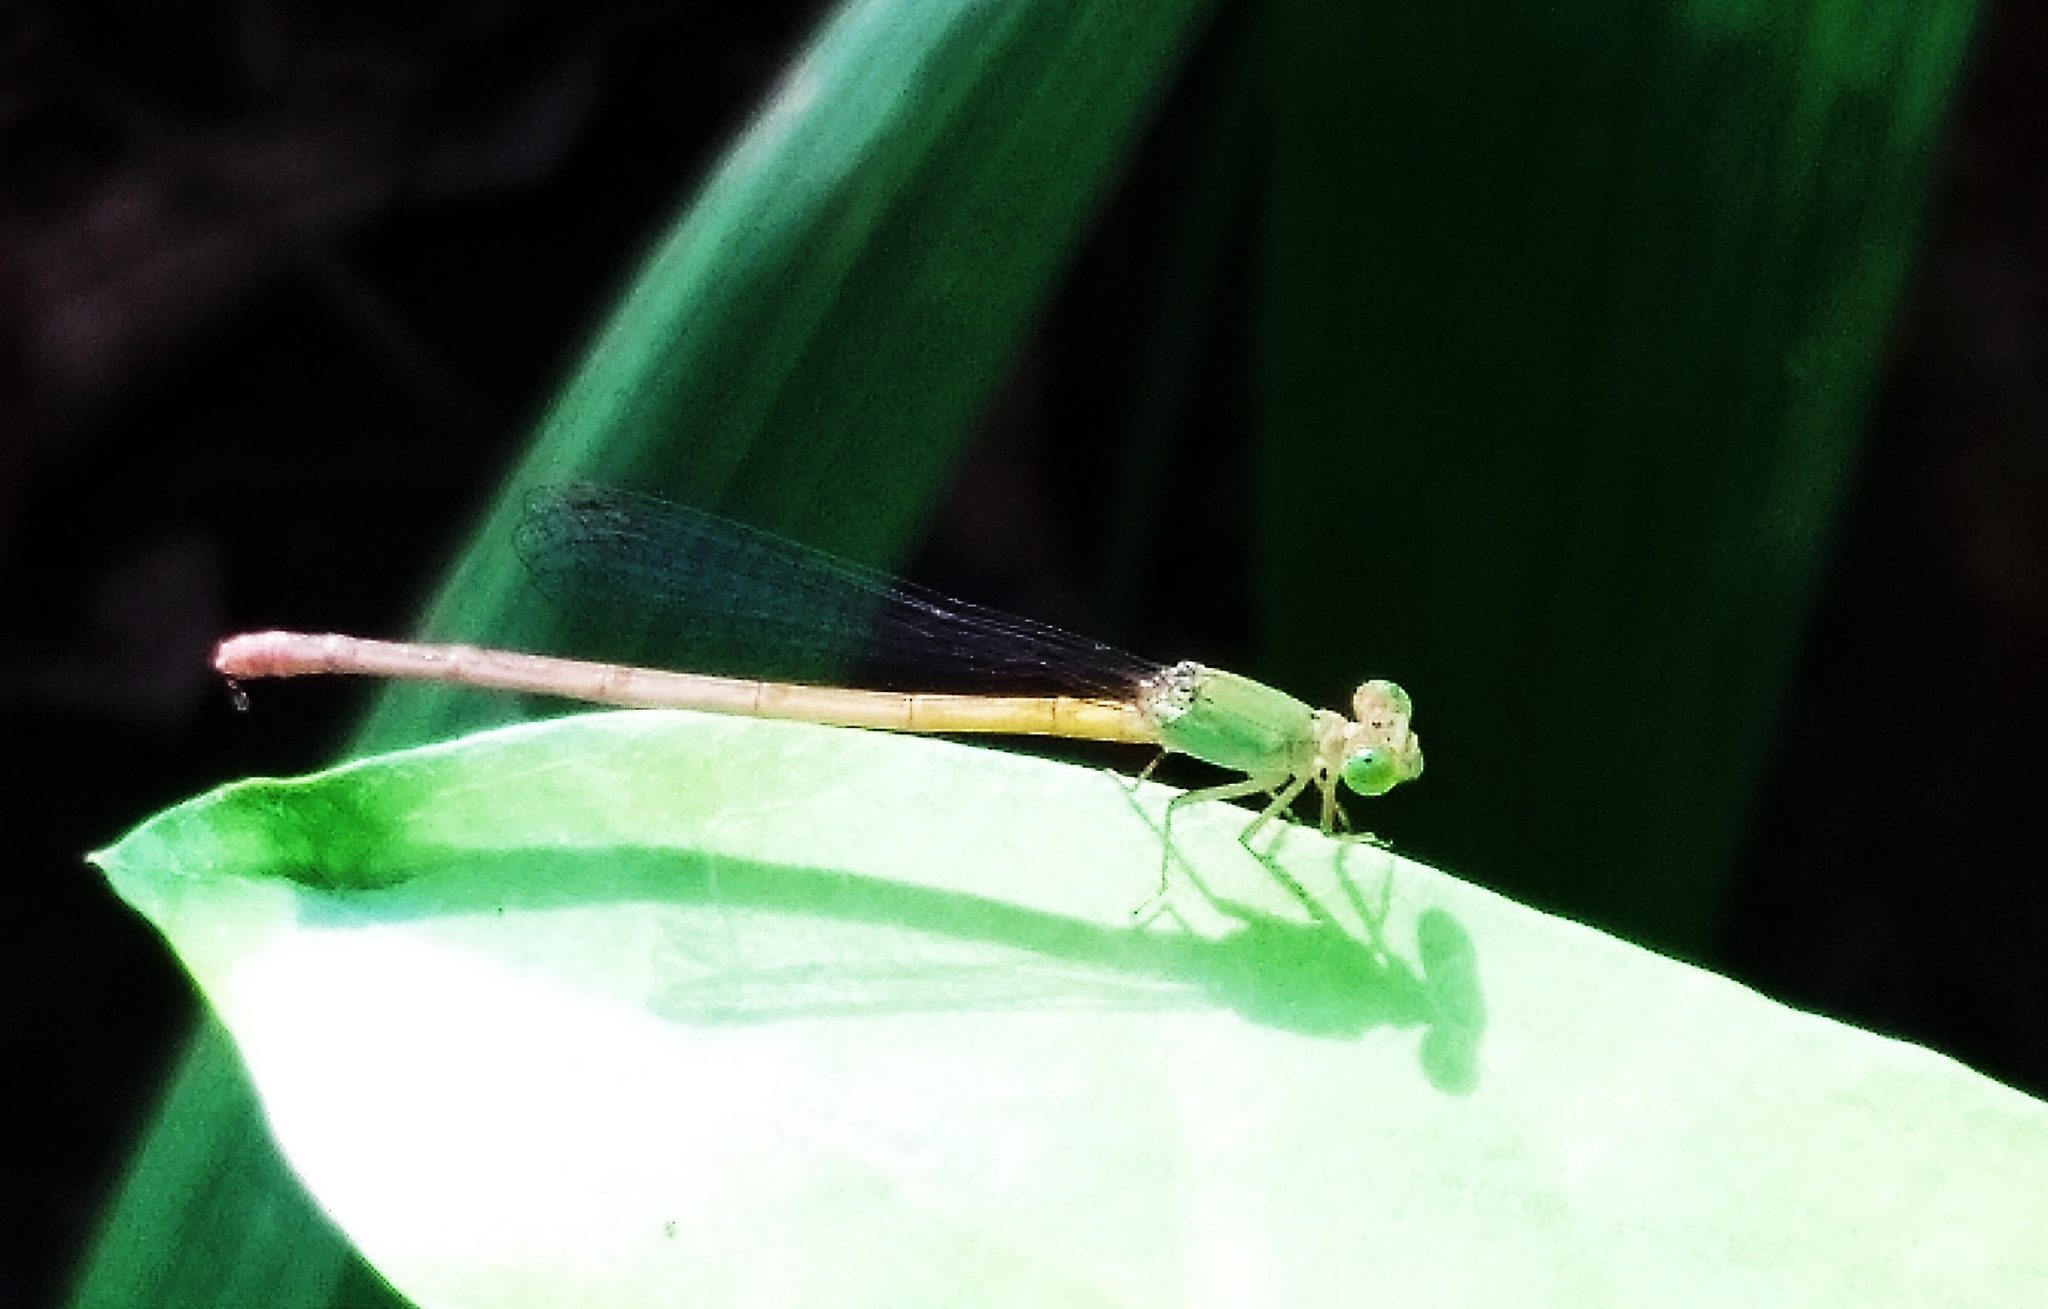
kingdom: Animalia
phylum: Arthropoda
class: Insecta
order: Odonata
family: Coenagrionidae
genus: Ceriagrion
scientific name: Ceriagrion coromandelianum
